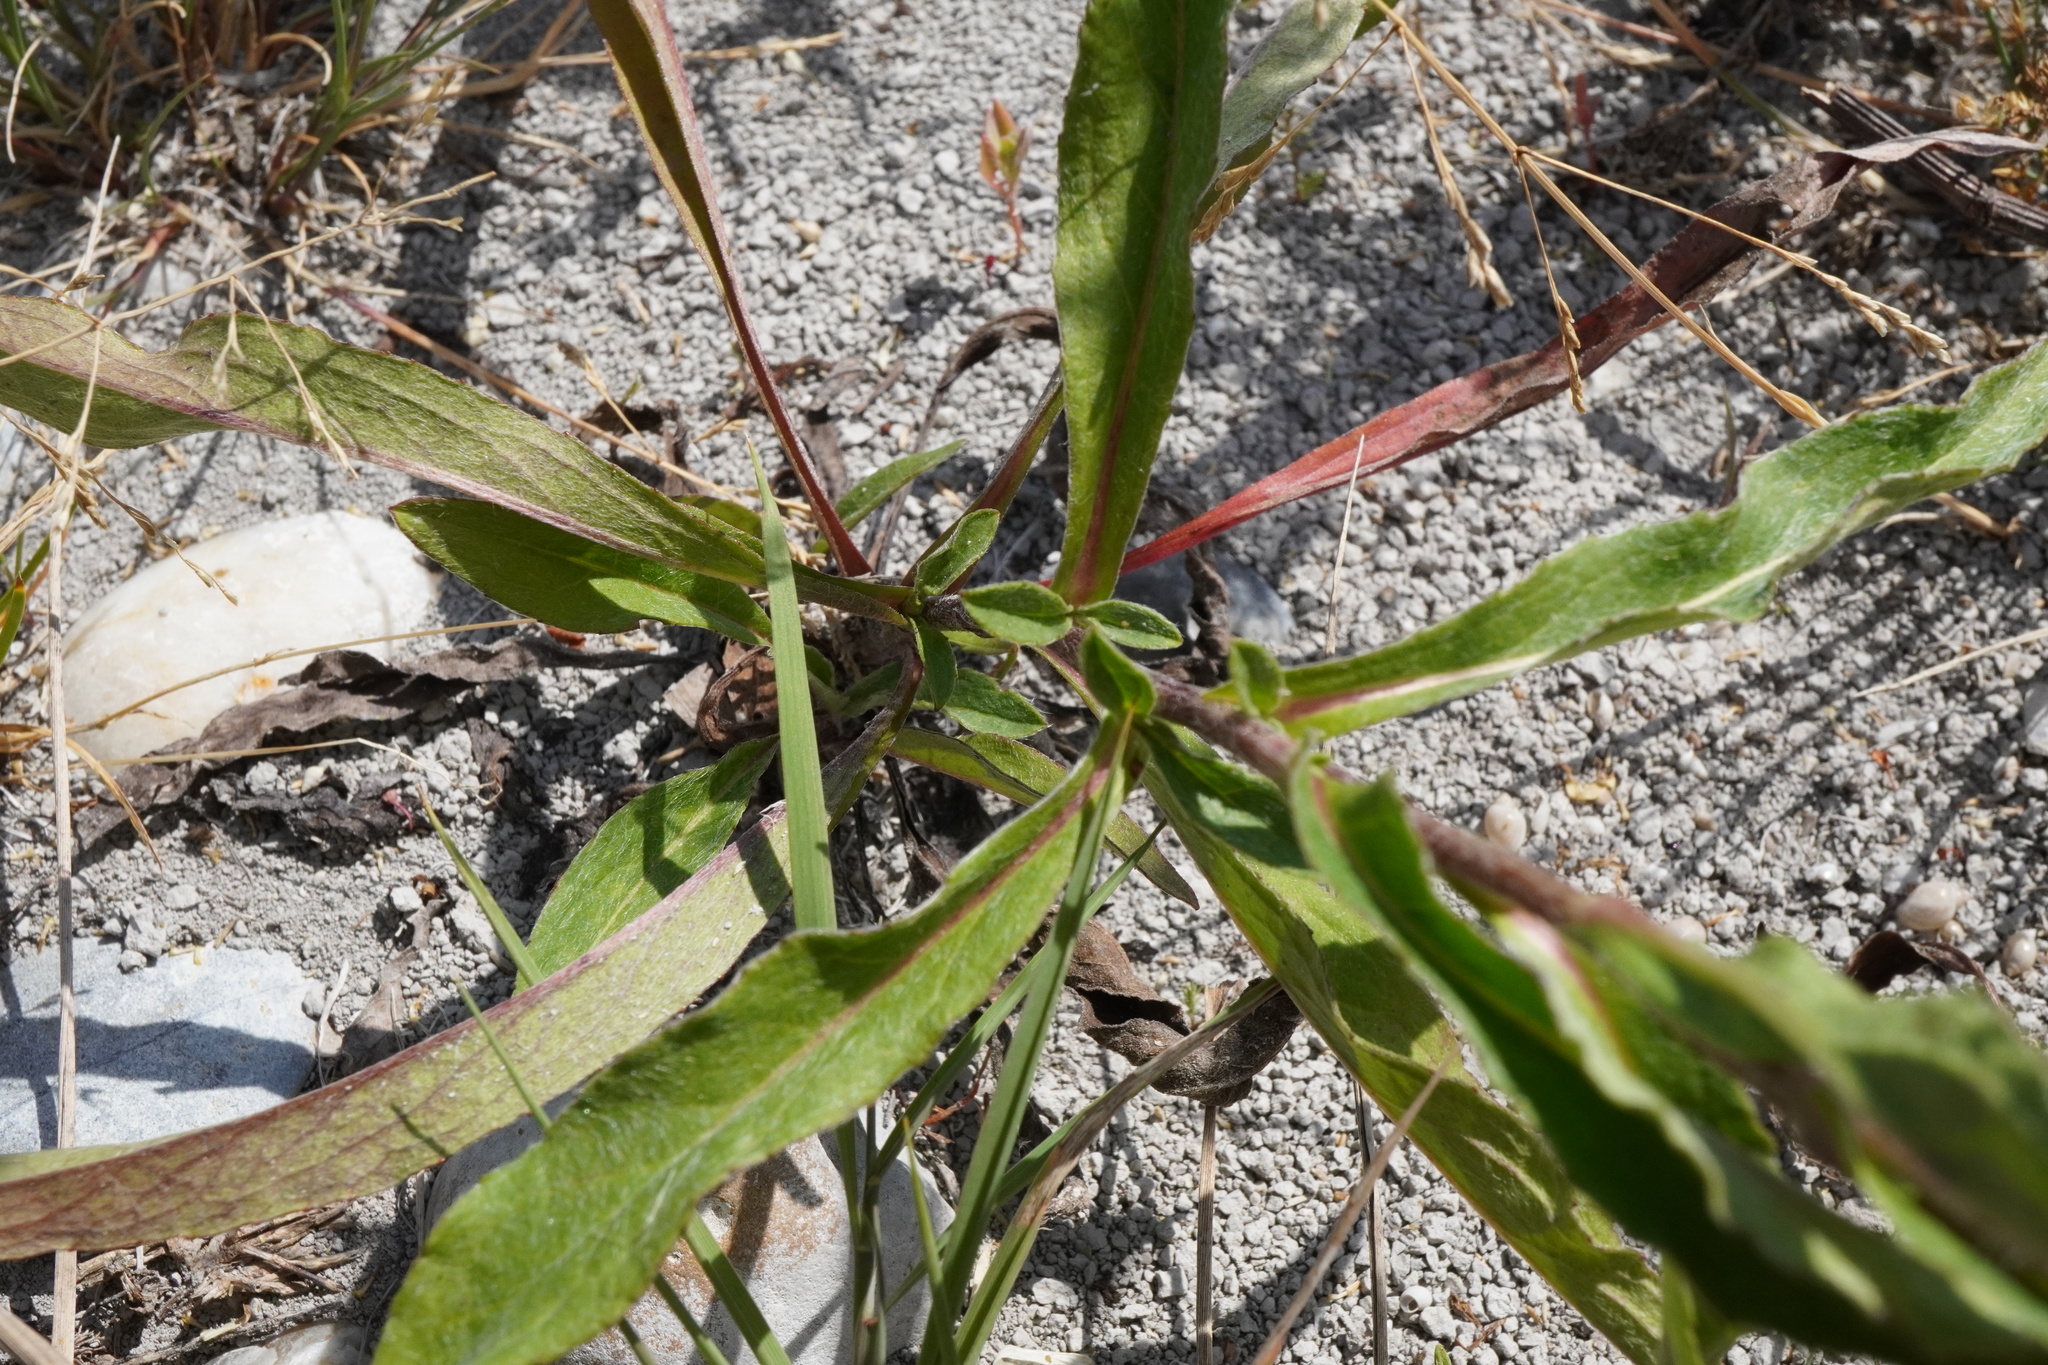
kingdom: Plantae
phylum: Tracheophyta
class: Magnoliopsida
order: Asterales
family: Asteraceae
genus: Pentanema
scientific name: Pentanema britannicum
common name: British elecampane
